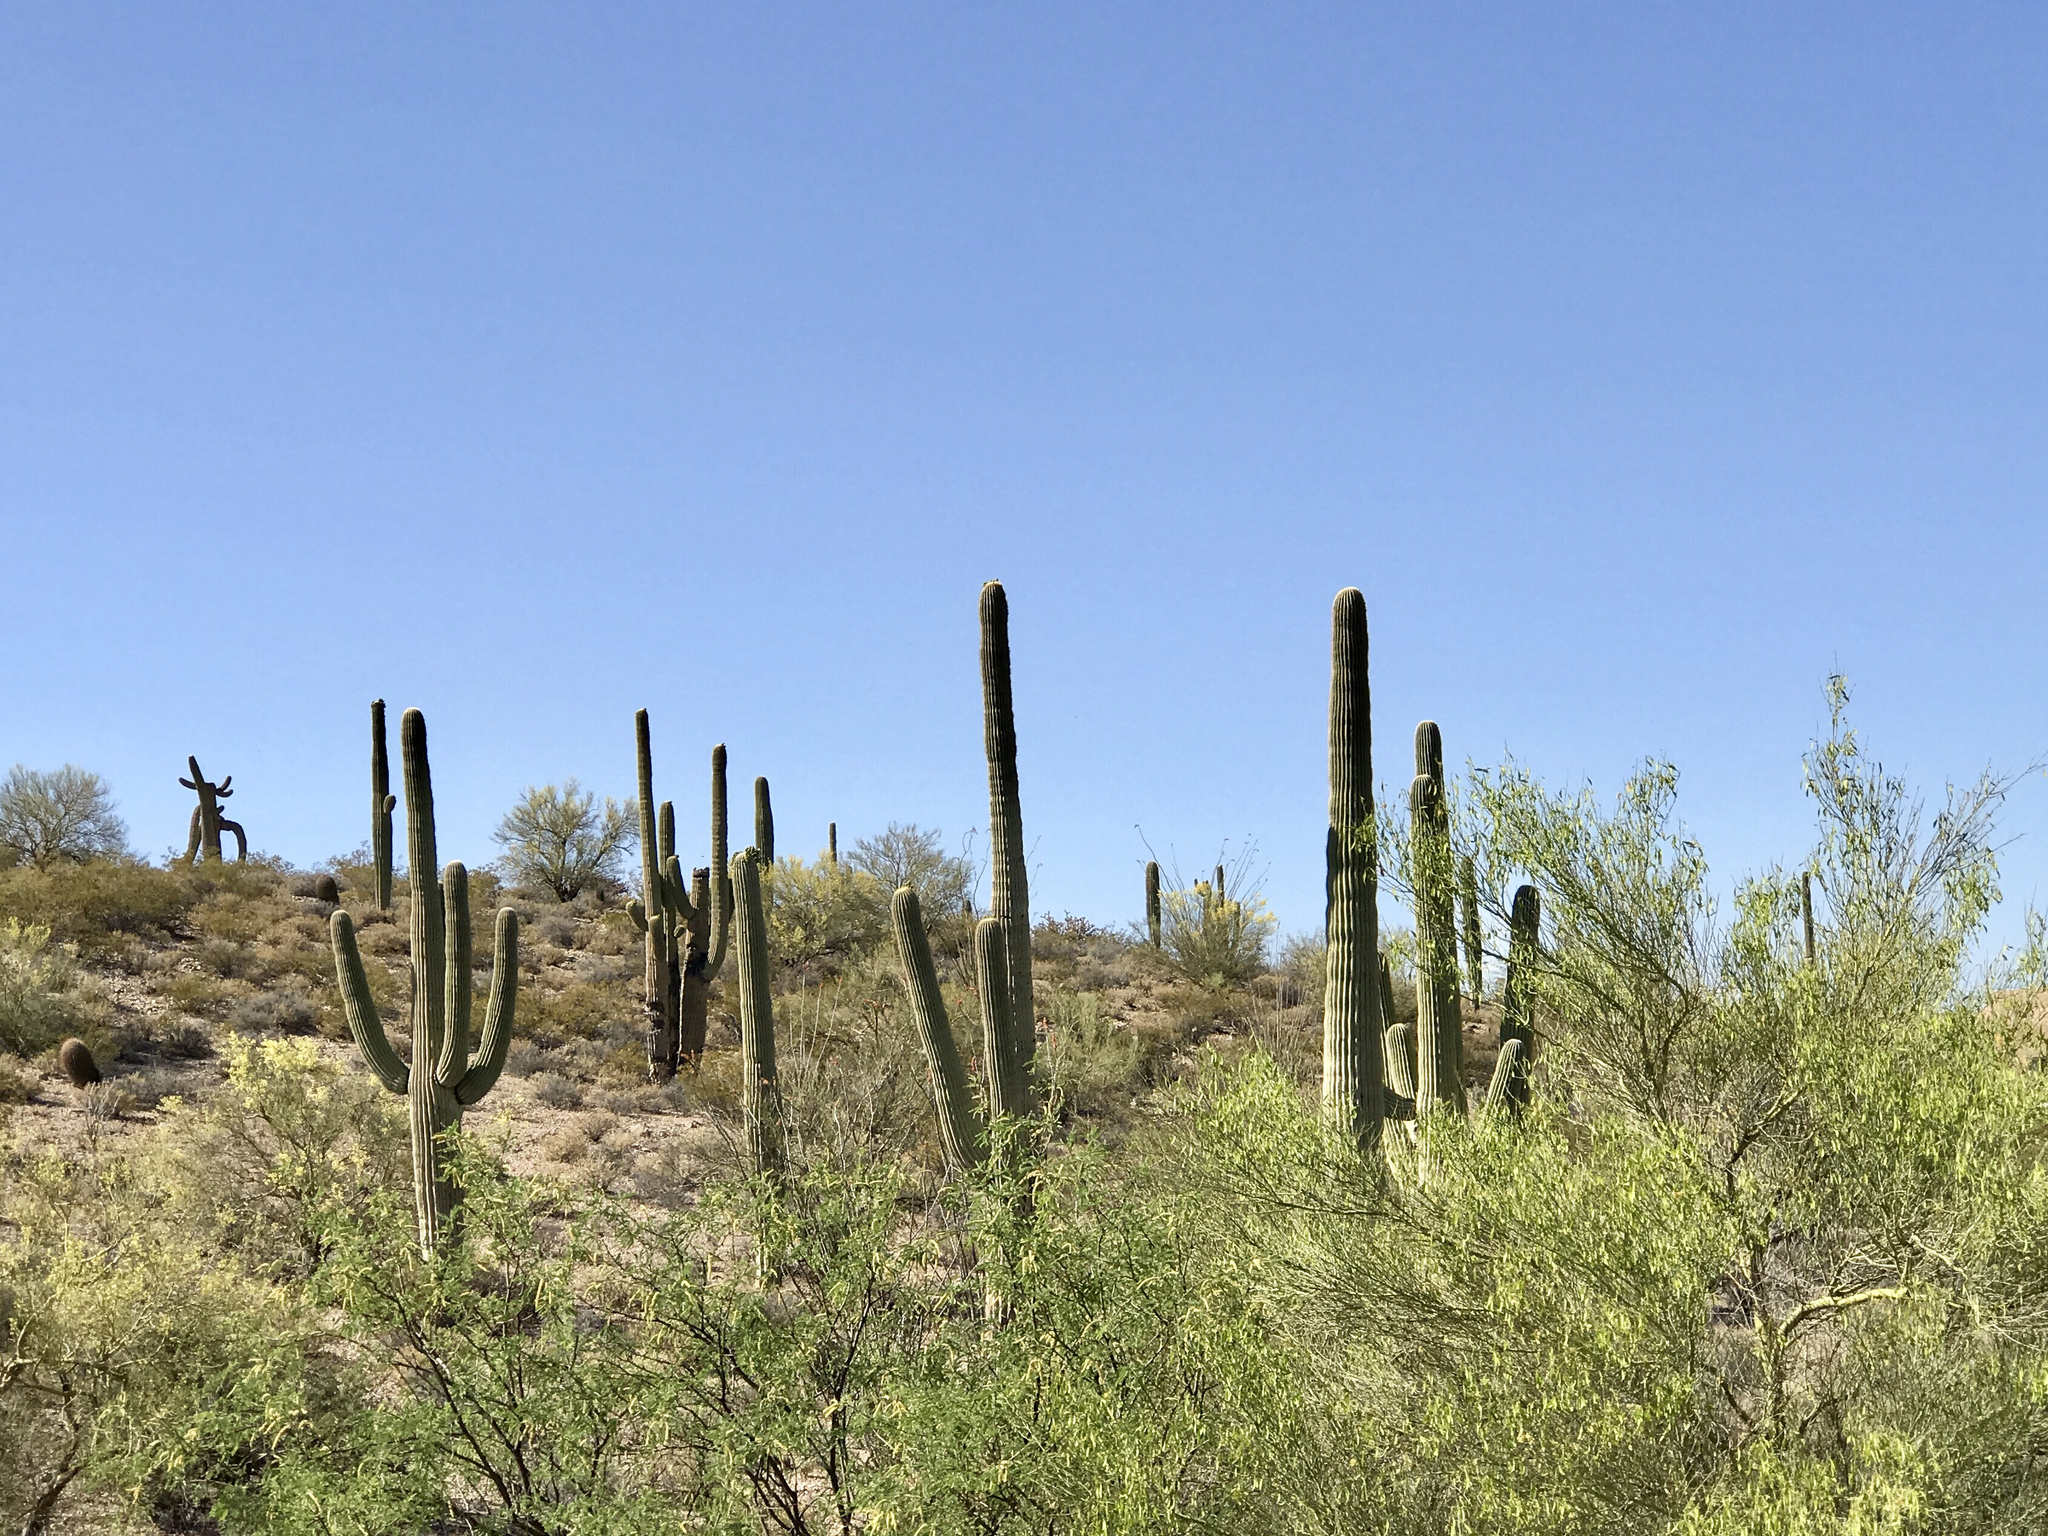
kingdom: Plantae
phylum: Tracheophyta
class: Magnoliopsida
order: Caryophyllales
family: Cactaceae
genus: Carnegiea
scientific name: Carnegiea gigantea
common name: Saguaro
